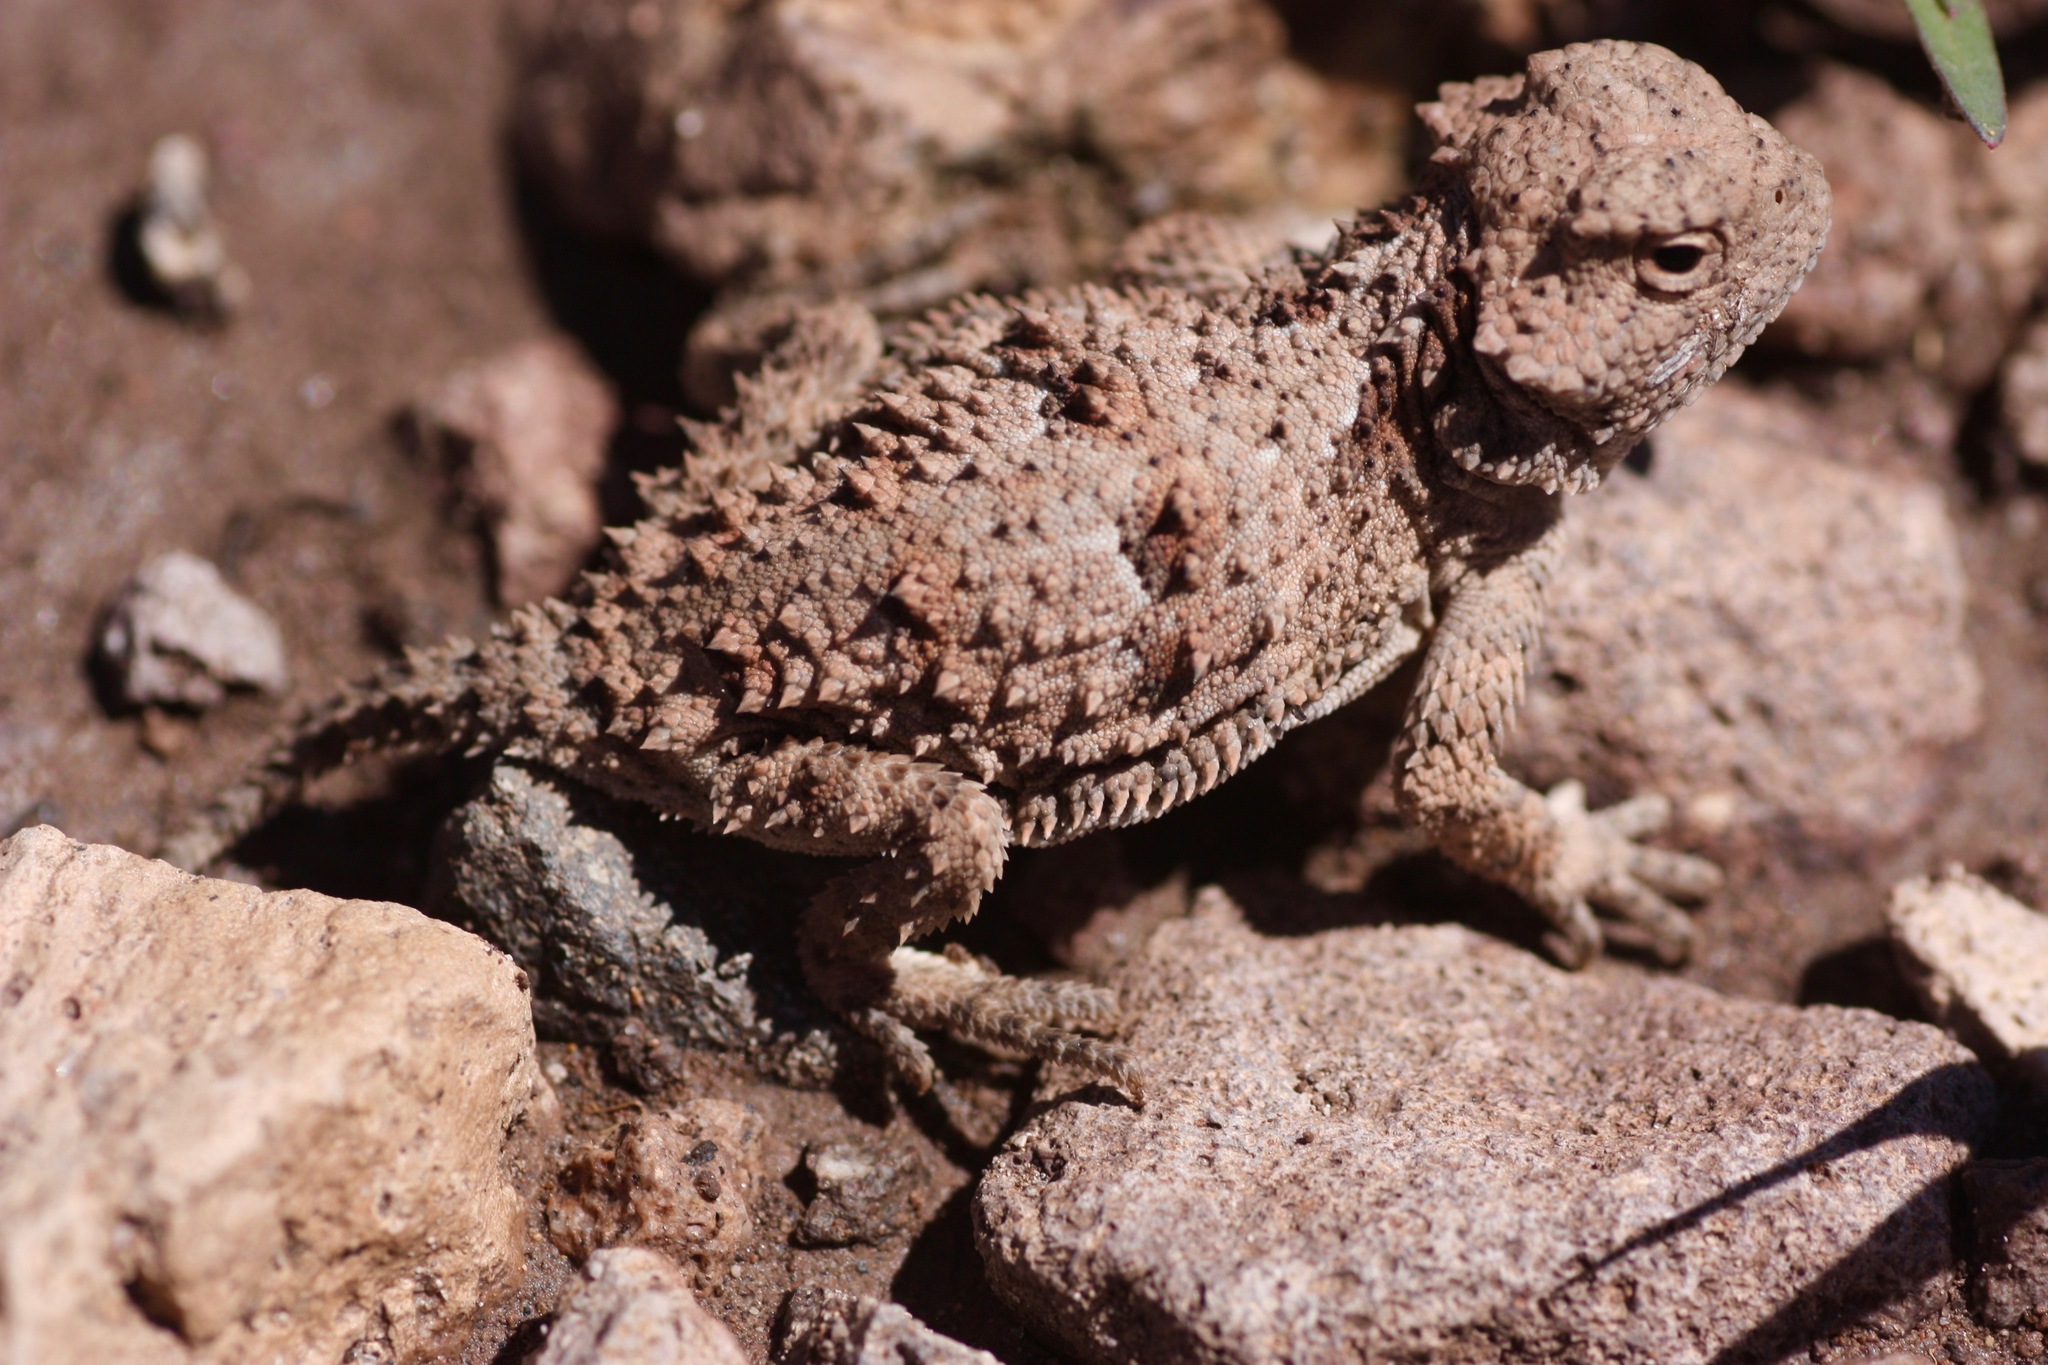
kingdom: Animalia
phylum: Chordata
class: Squamata
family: Phrynosomatidae
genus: Phrynosoma
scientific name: Phrynosoma hernandesi
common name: Greater short-horned lizard
